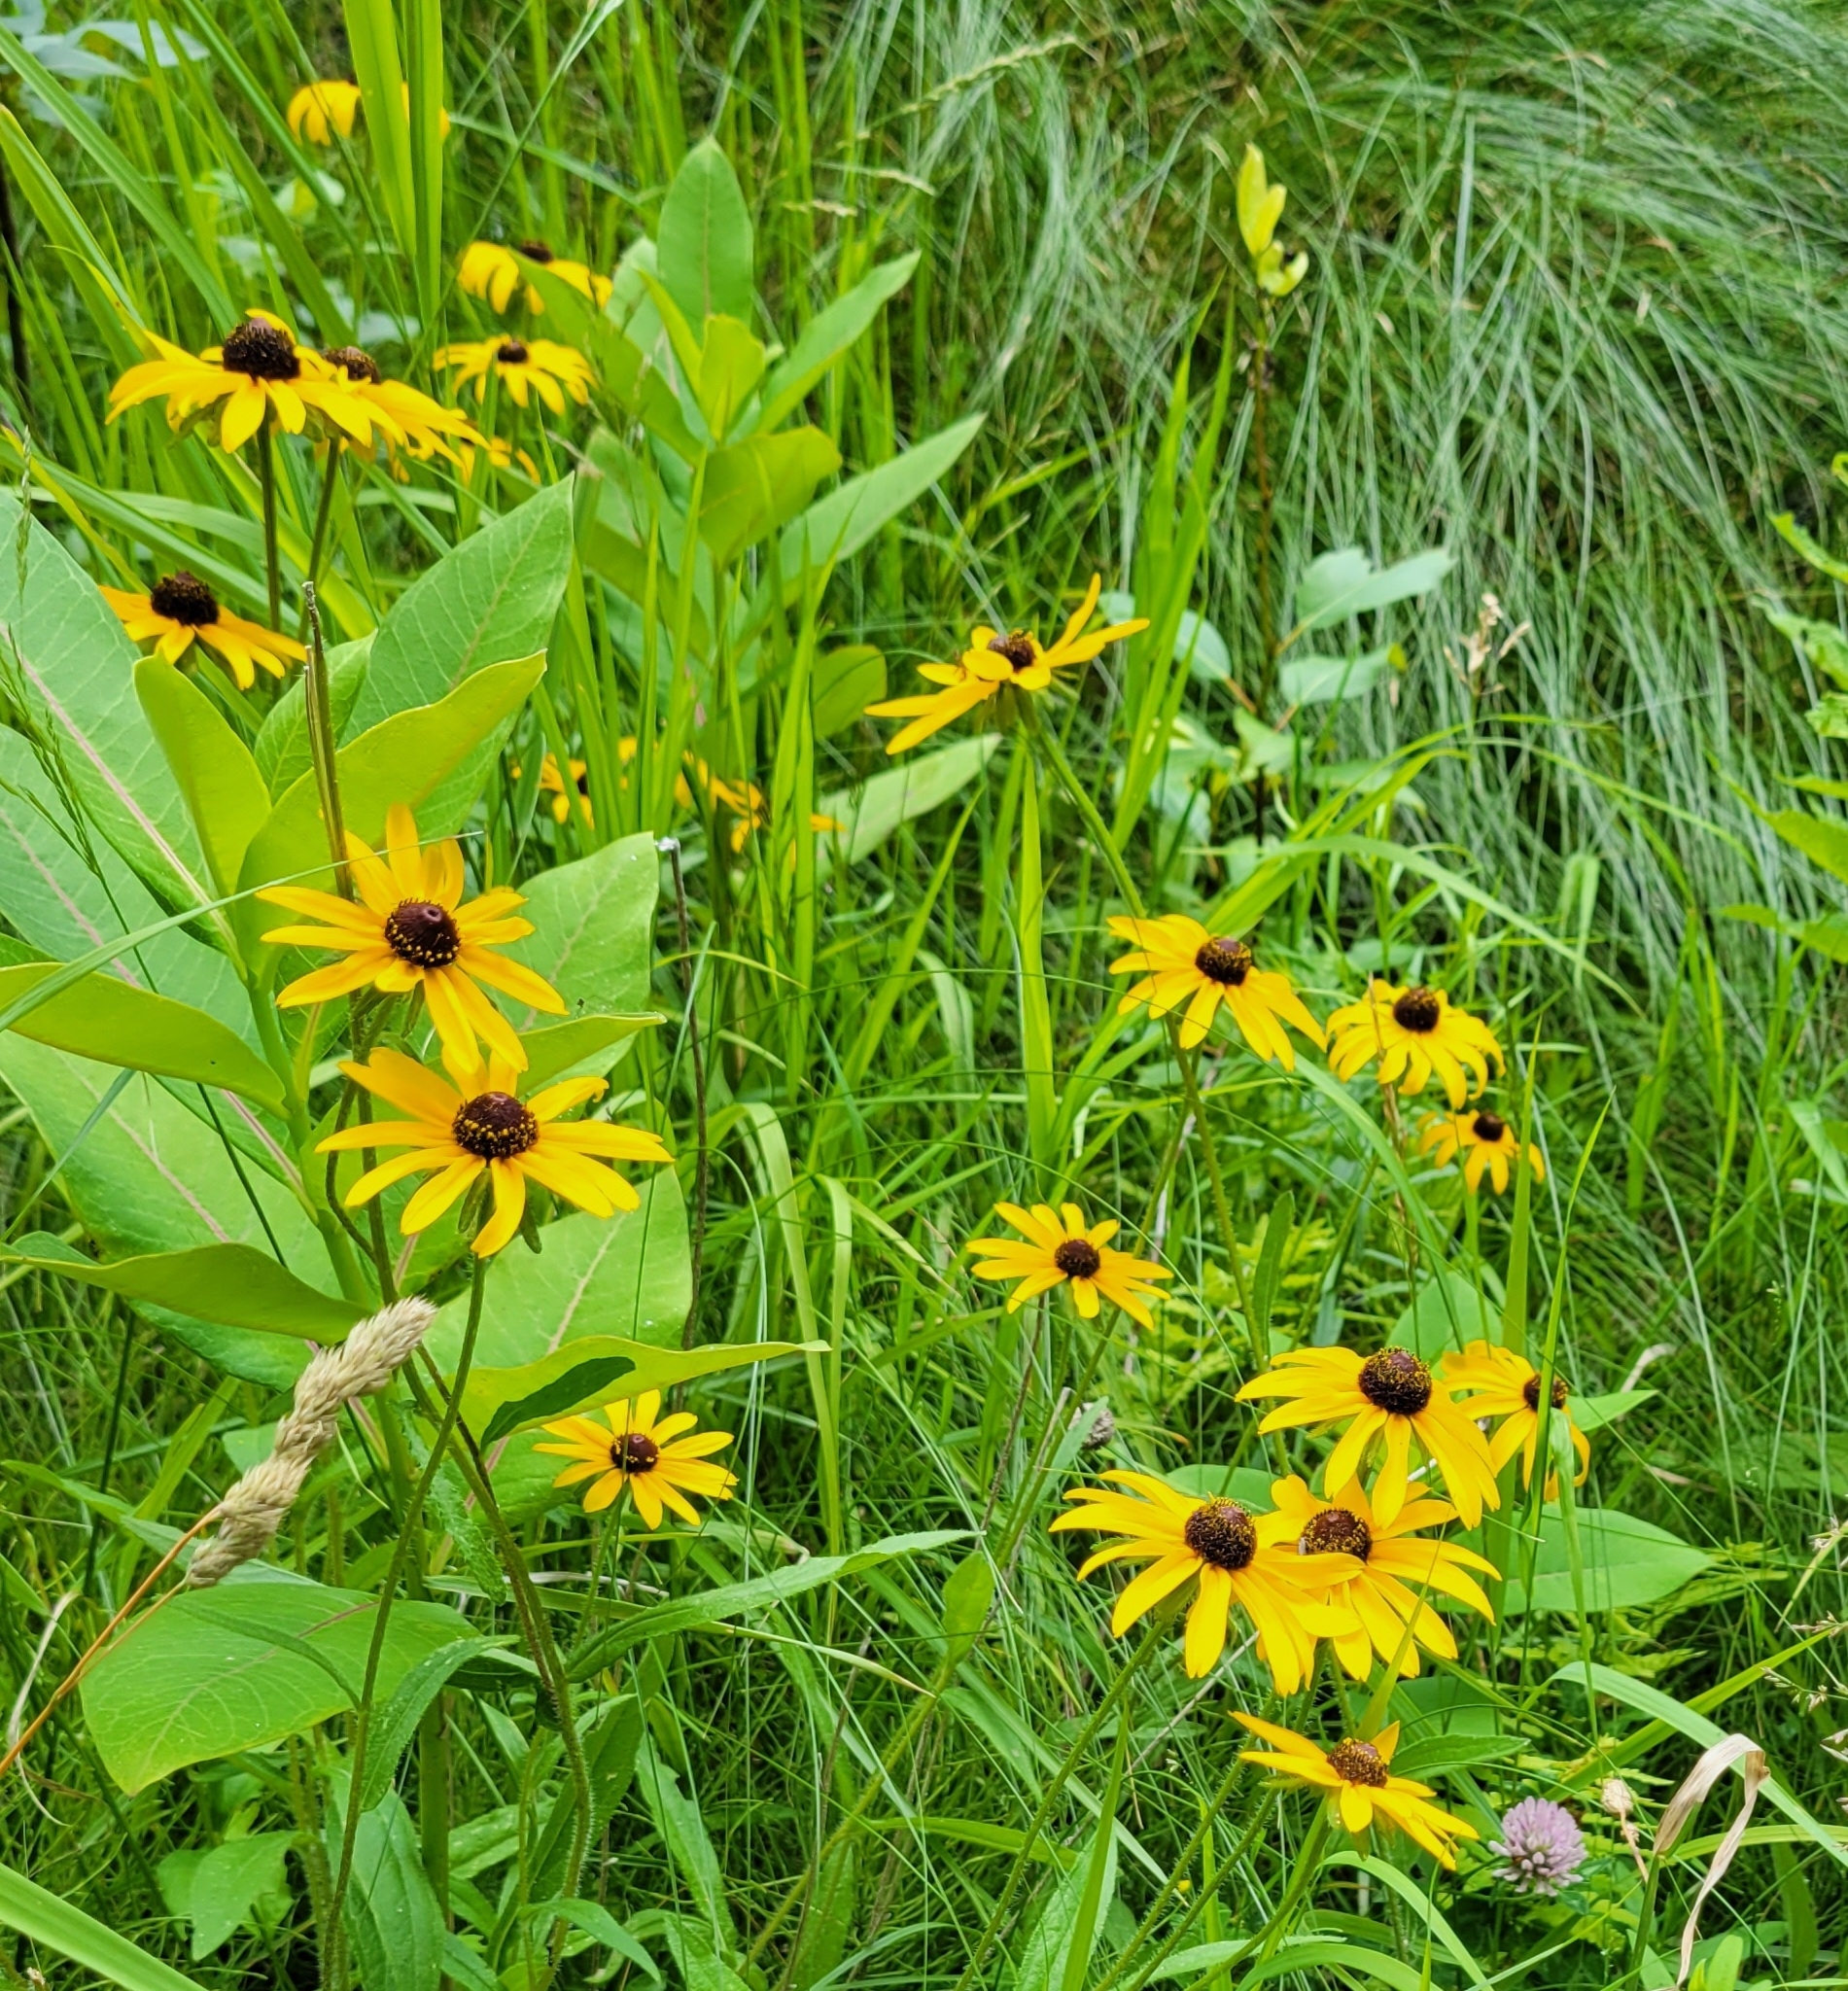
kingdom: Plantae
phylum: Tracheophyta
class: Magnoliopsida
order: Asterales
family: Asteraceae
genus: Rudbeckia
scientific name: Rudbeckia hirta
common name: Black-eyed-susan
